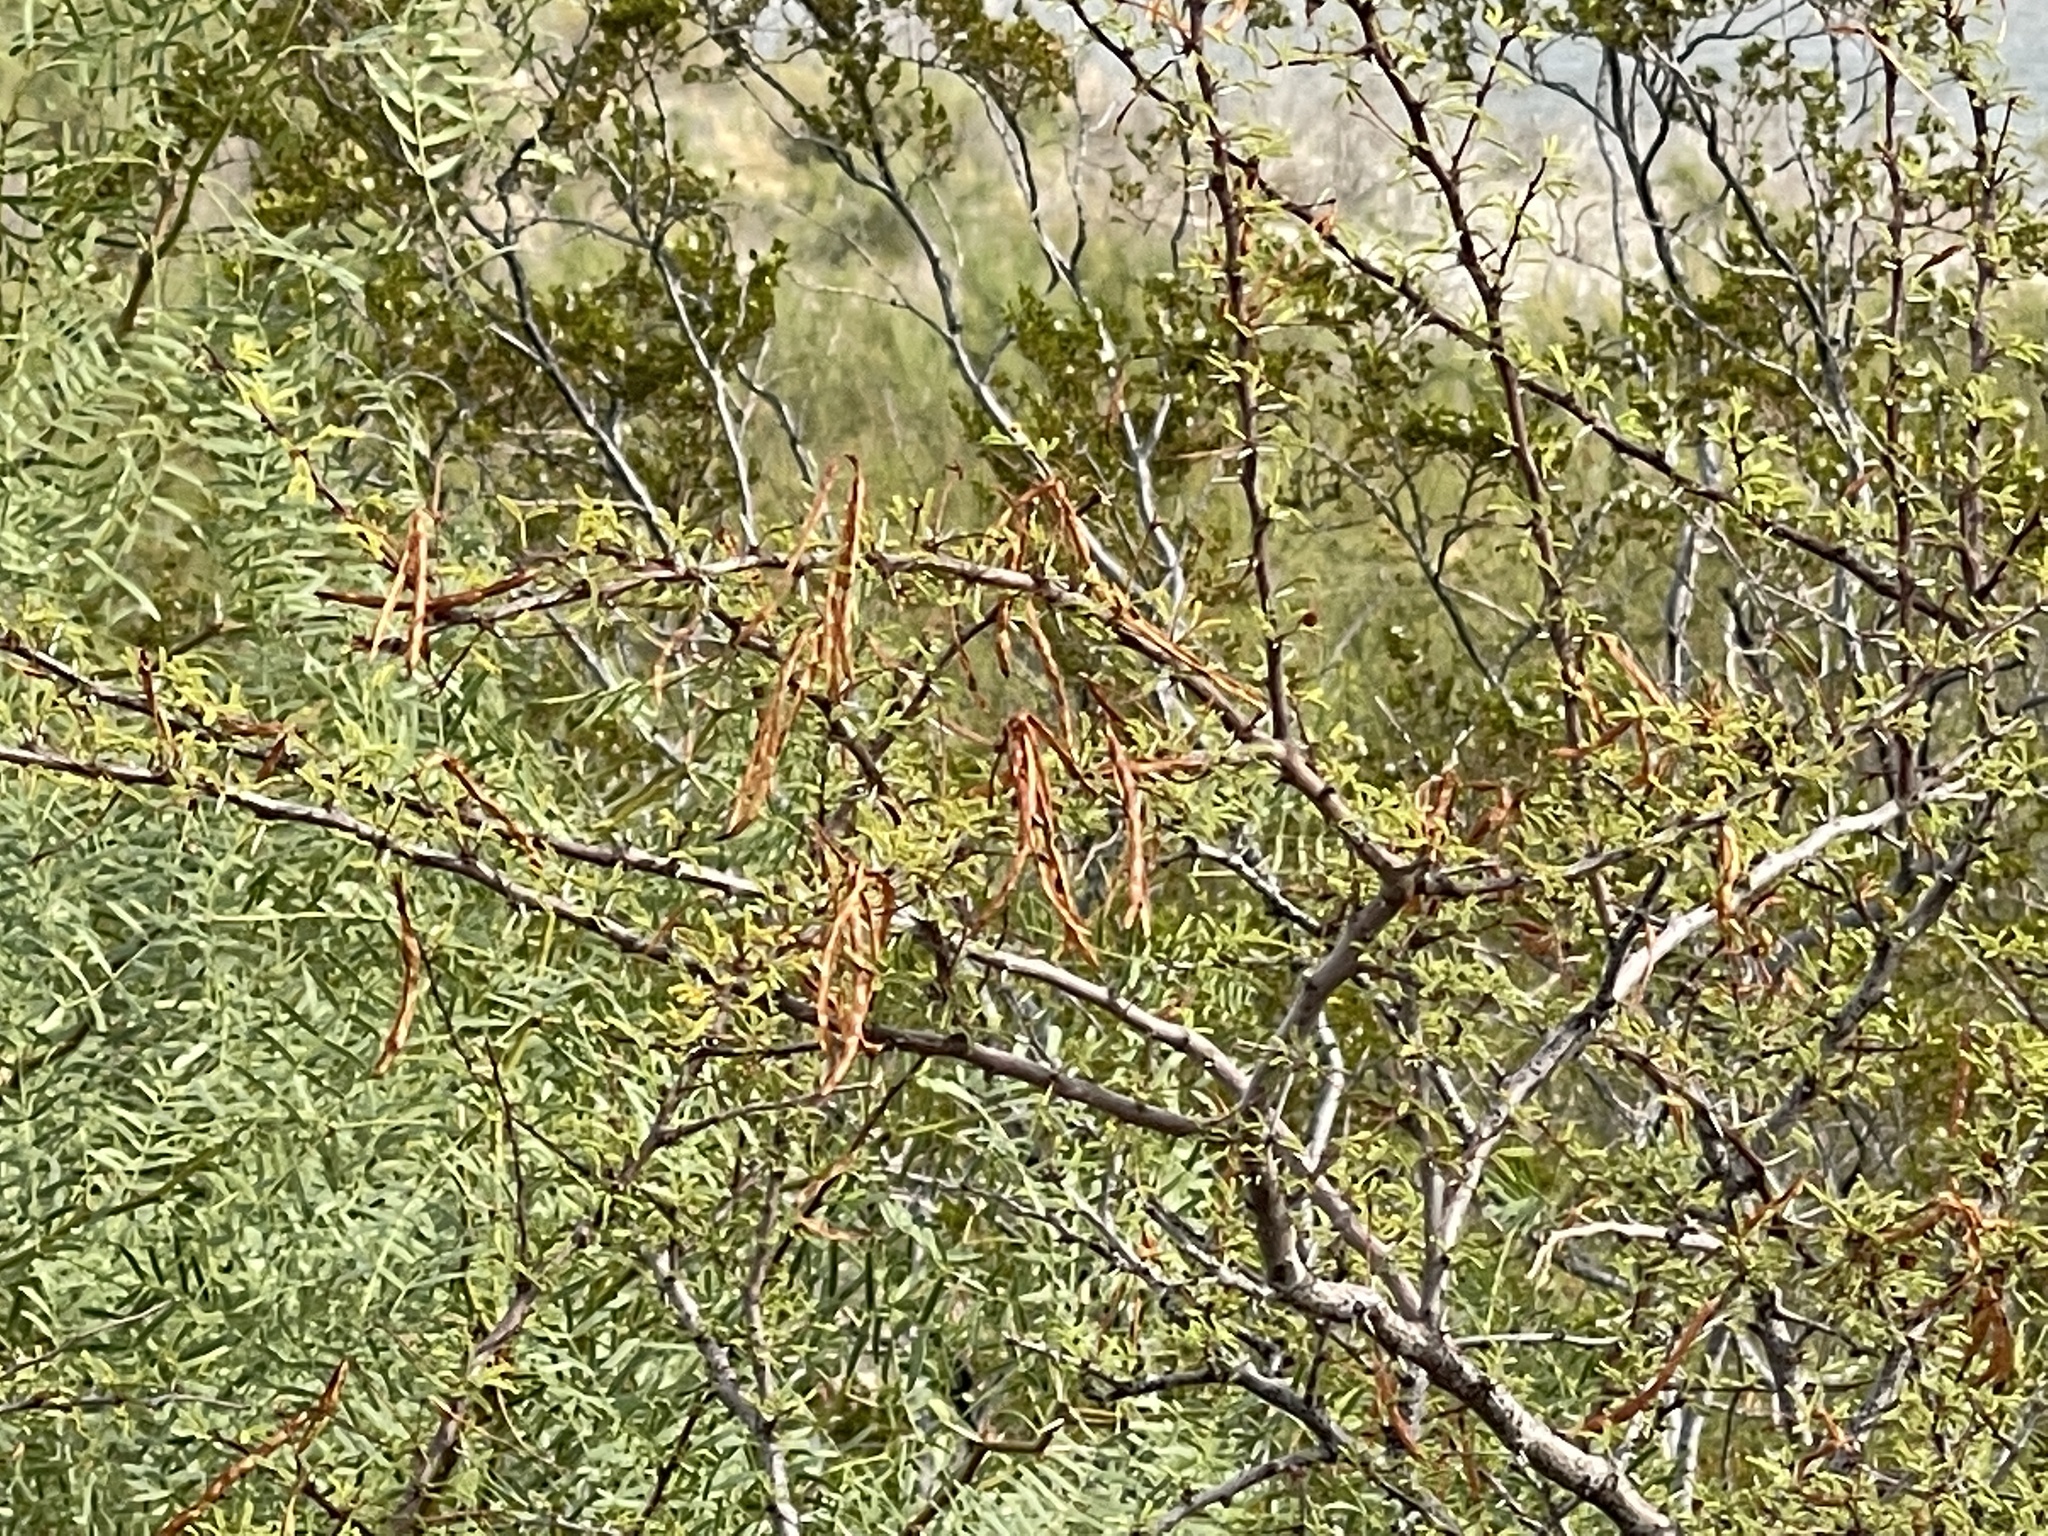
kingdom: Plantae
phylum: Tracheophyta
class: Magnoliopsida
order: Fabales
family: Fabaceae
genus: Vachellia
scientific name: Vachellia constricta
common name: Mescat acacia
